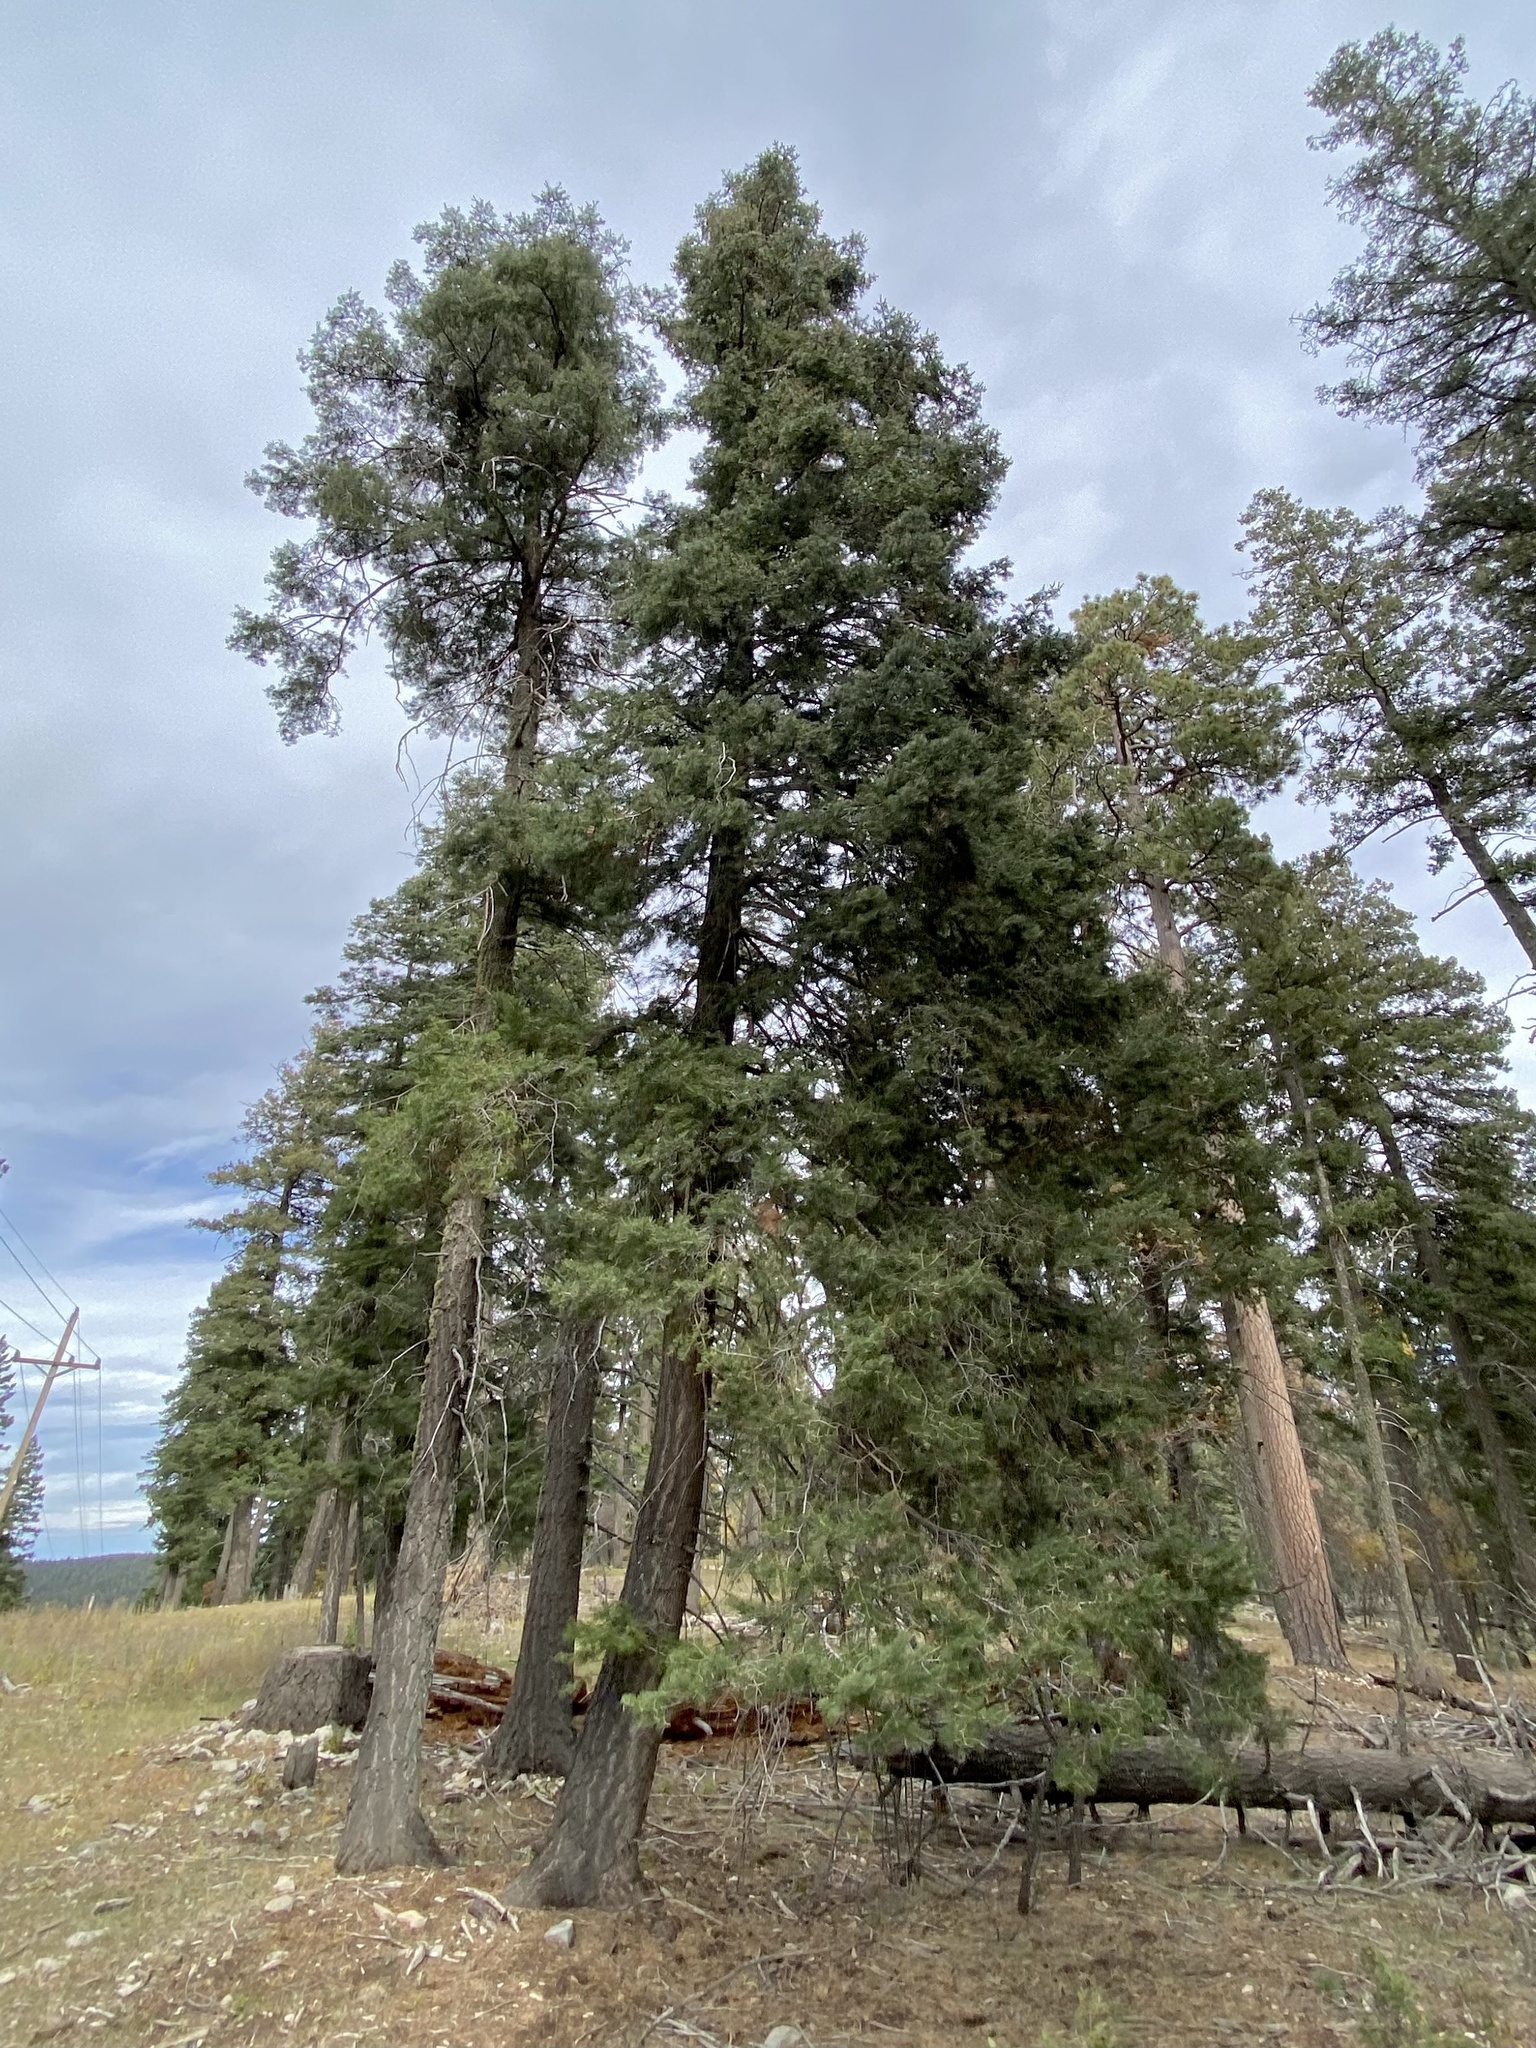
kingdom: Plantae
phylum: Tracheophyta
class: Pinopsida
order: Pinales
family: Pinaceae
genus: Abies
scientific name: Abies concolor
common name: Colorado fir
